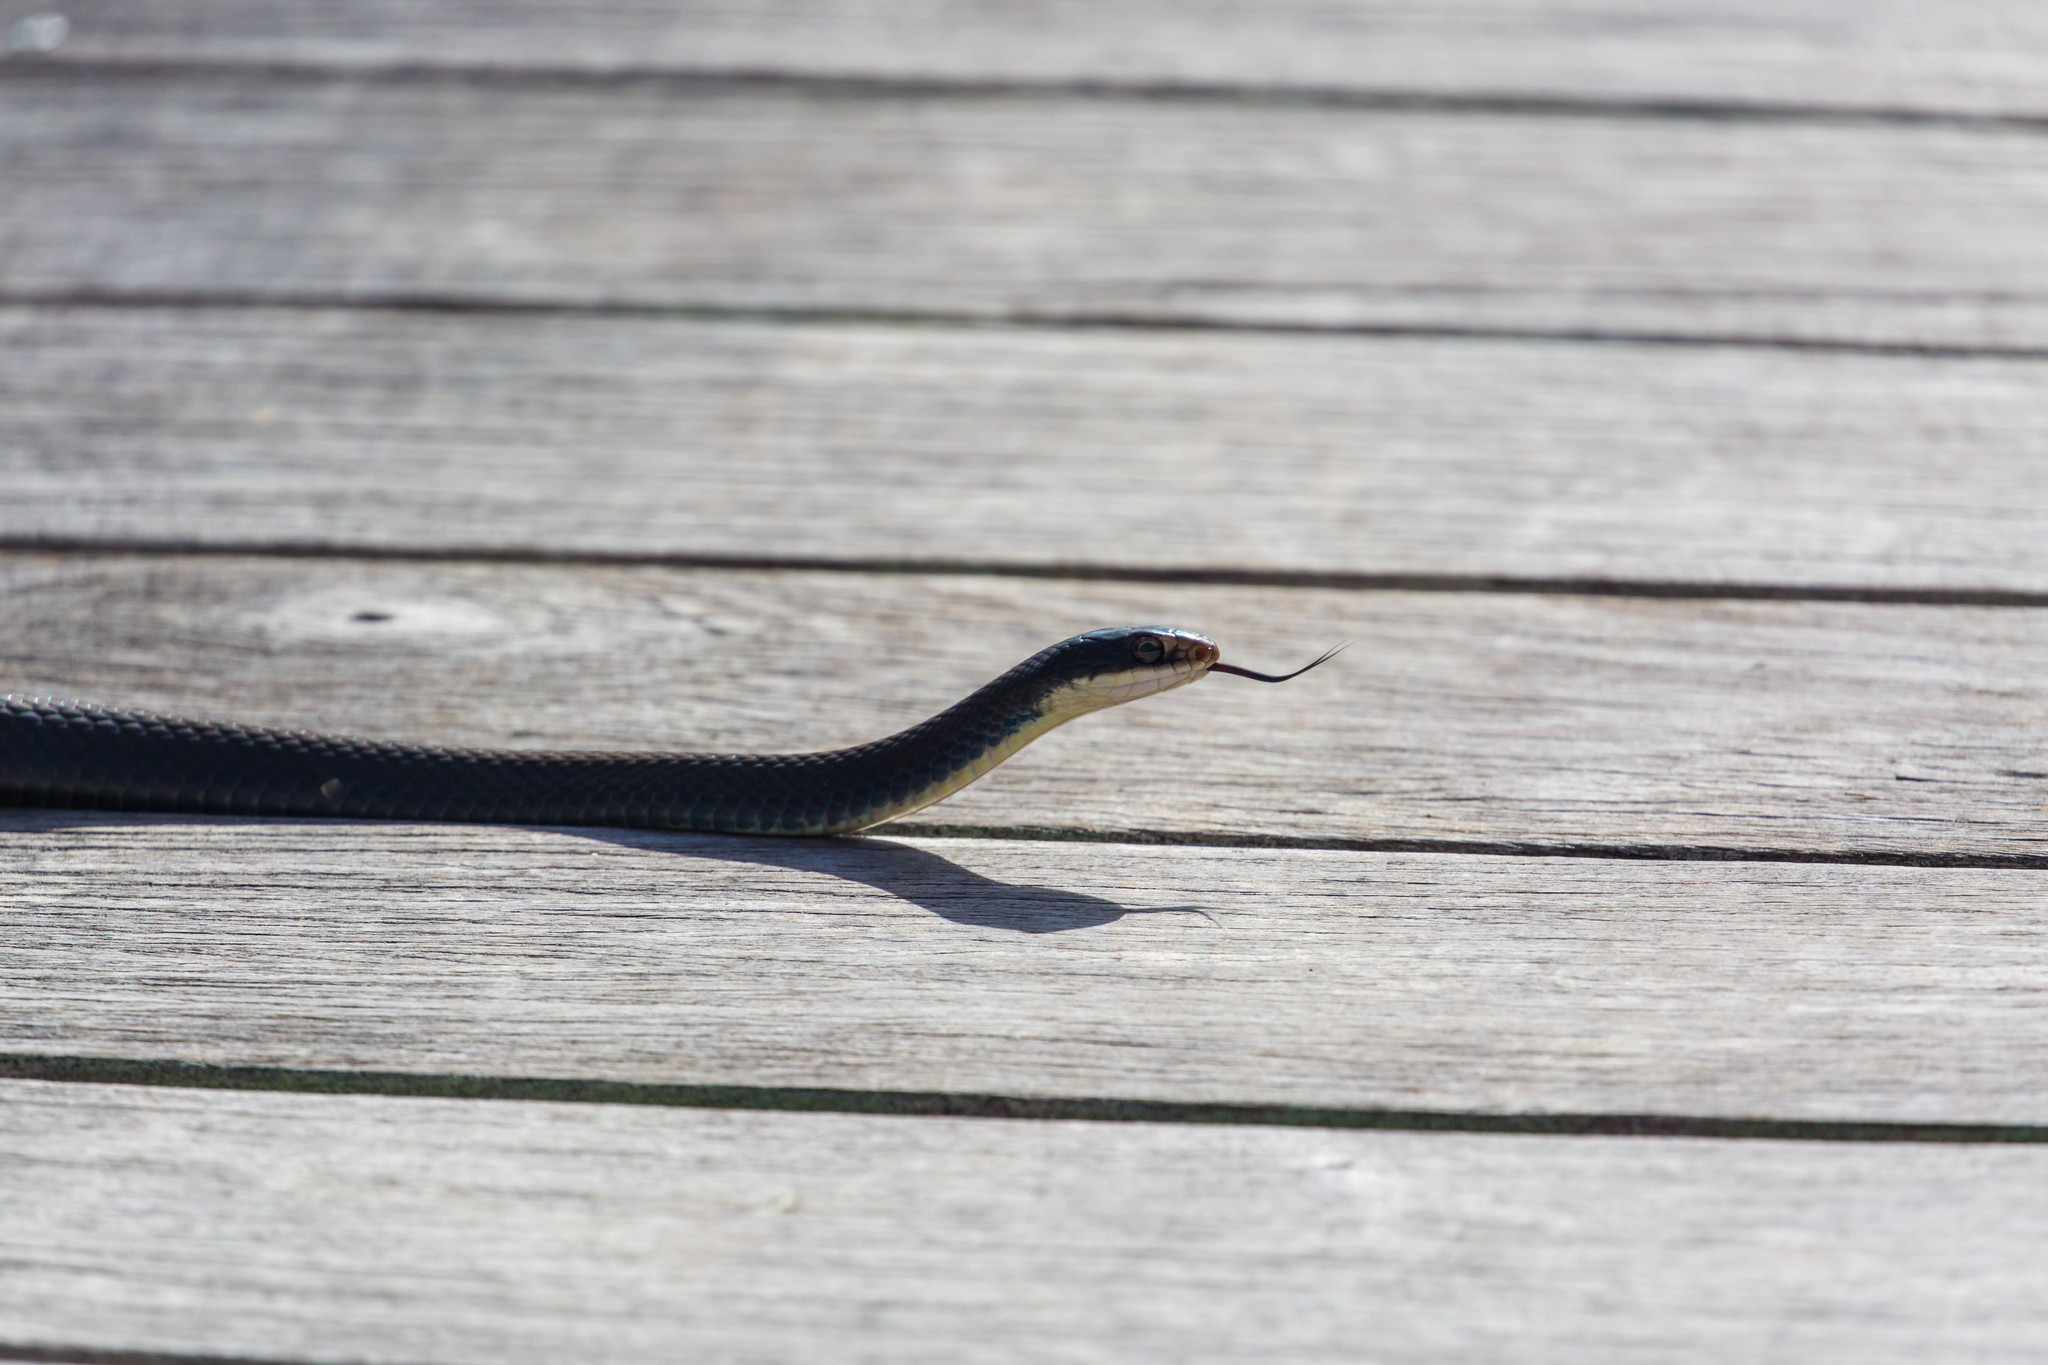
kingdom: Animalia
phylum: Chordata
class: Squamata
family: Colubridae
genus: Coluber
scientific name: Coluber constrictor
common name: Eastern racer
